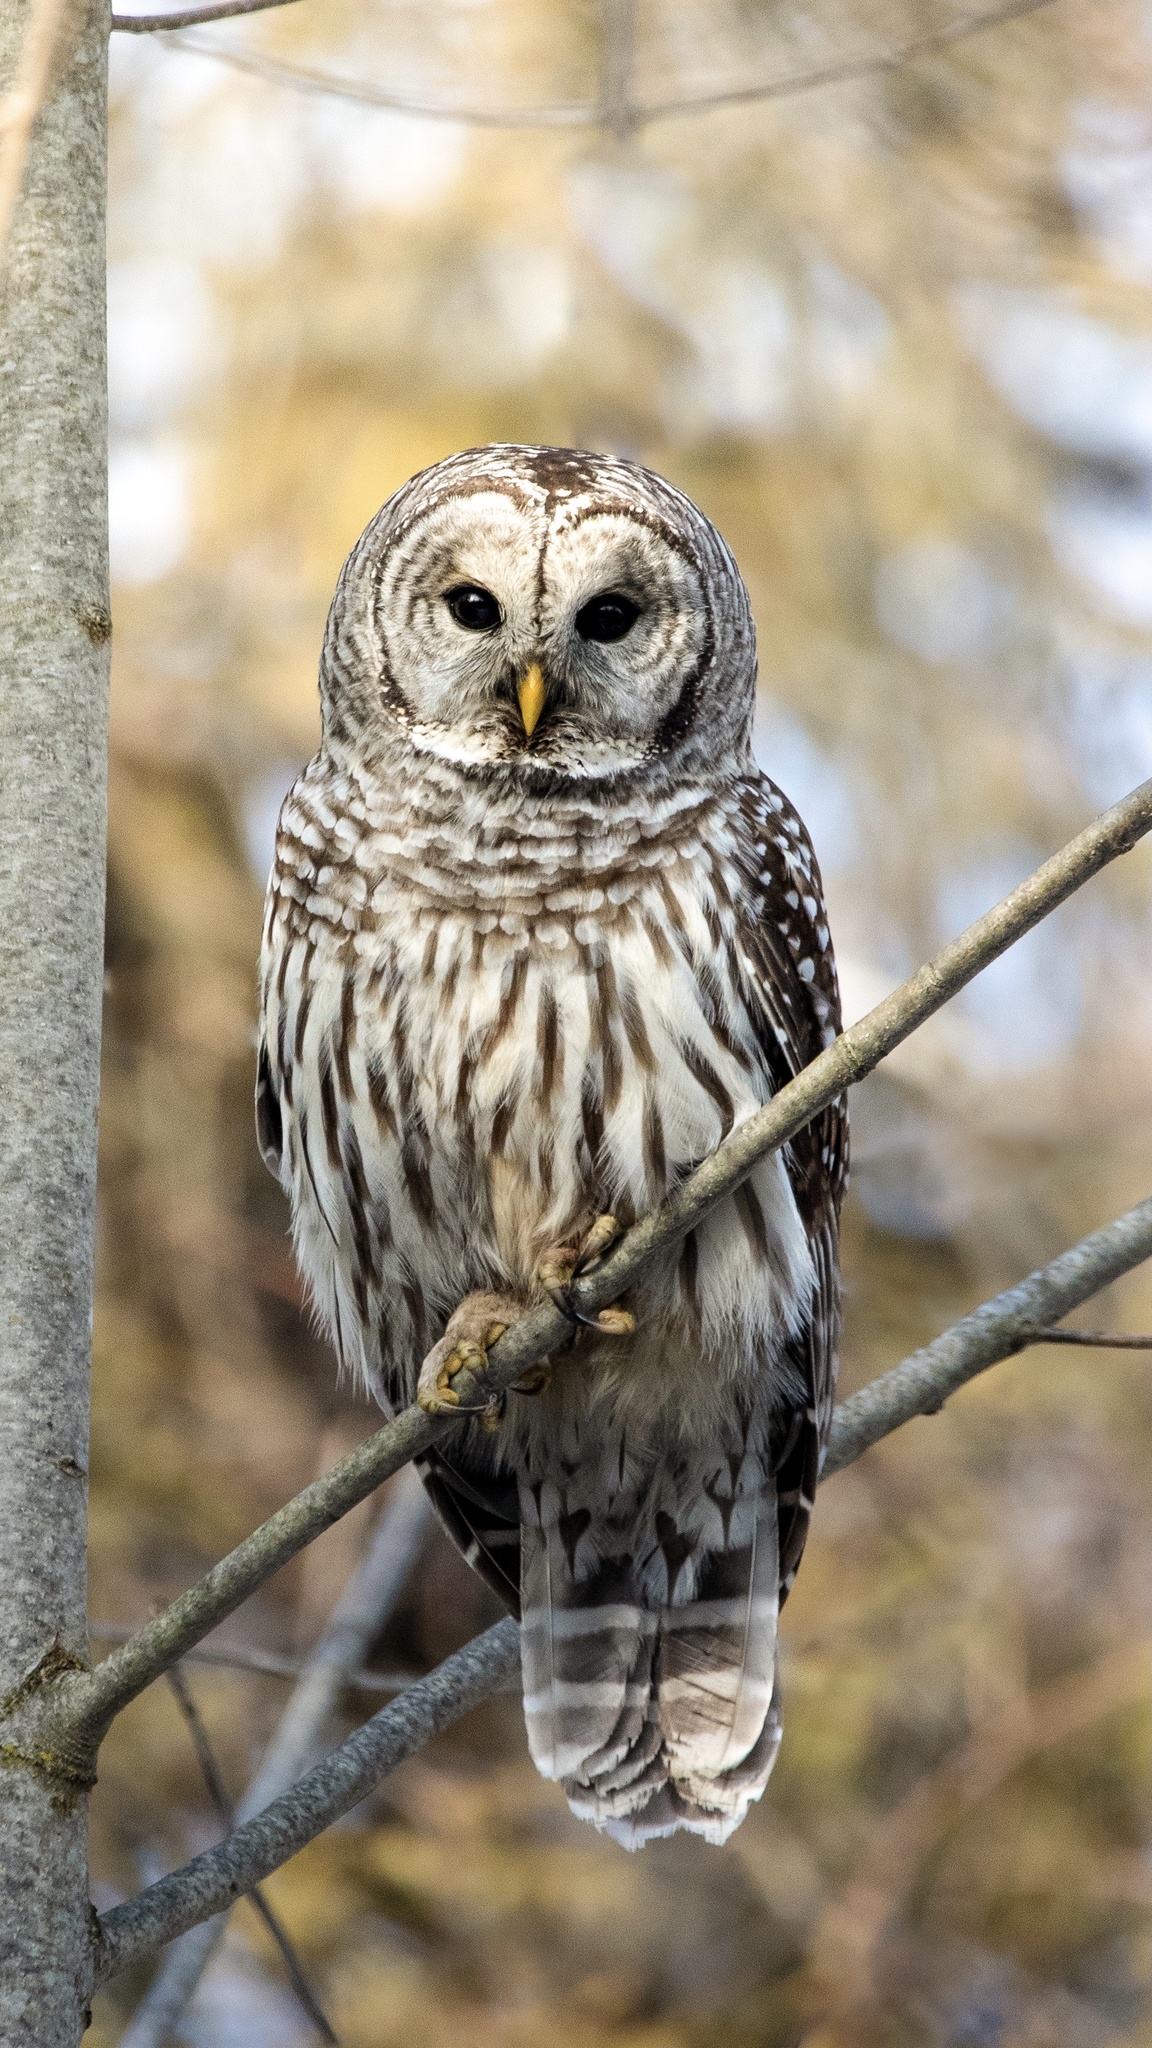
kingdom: Animalia
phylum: Chordata
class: Aves
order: Strigiformes
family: Strigidae
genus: Strix
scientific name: Strix varia
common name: Barred owl
